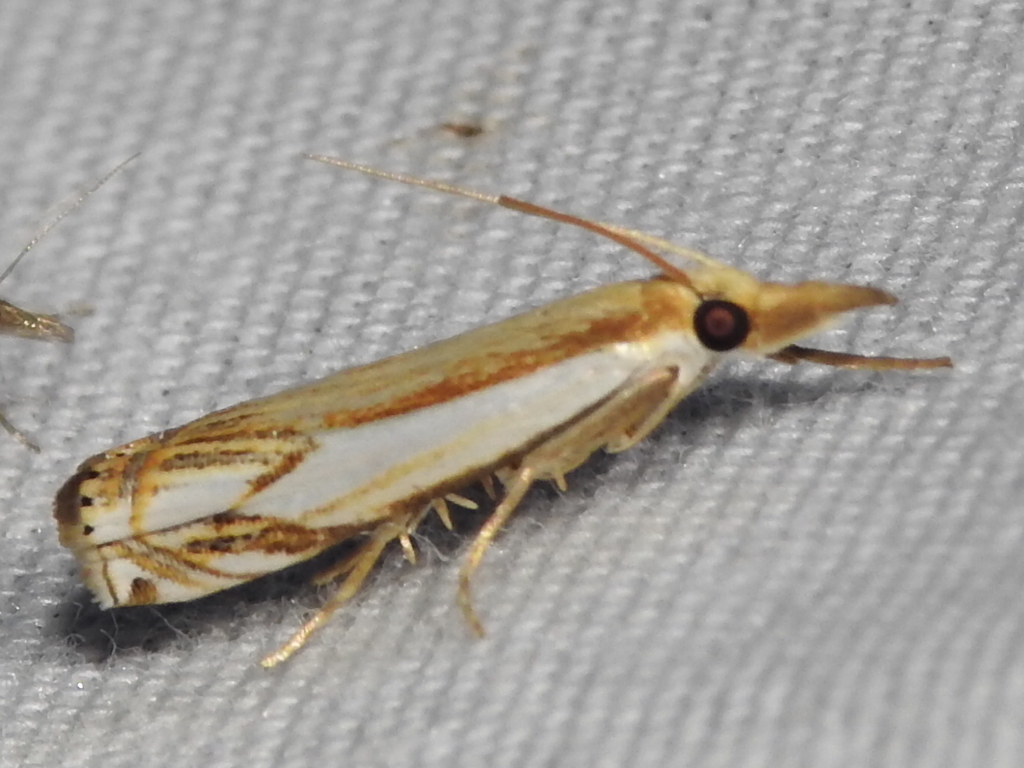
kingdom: Animalia
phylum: Arthropoda
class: Insecta
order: Lepidoptera
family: Crambidae
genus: Crambus
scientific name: Crambus agitatellus
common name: Double-banded grass-veneer
